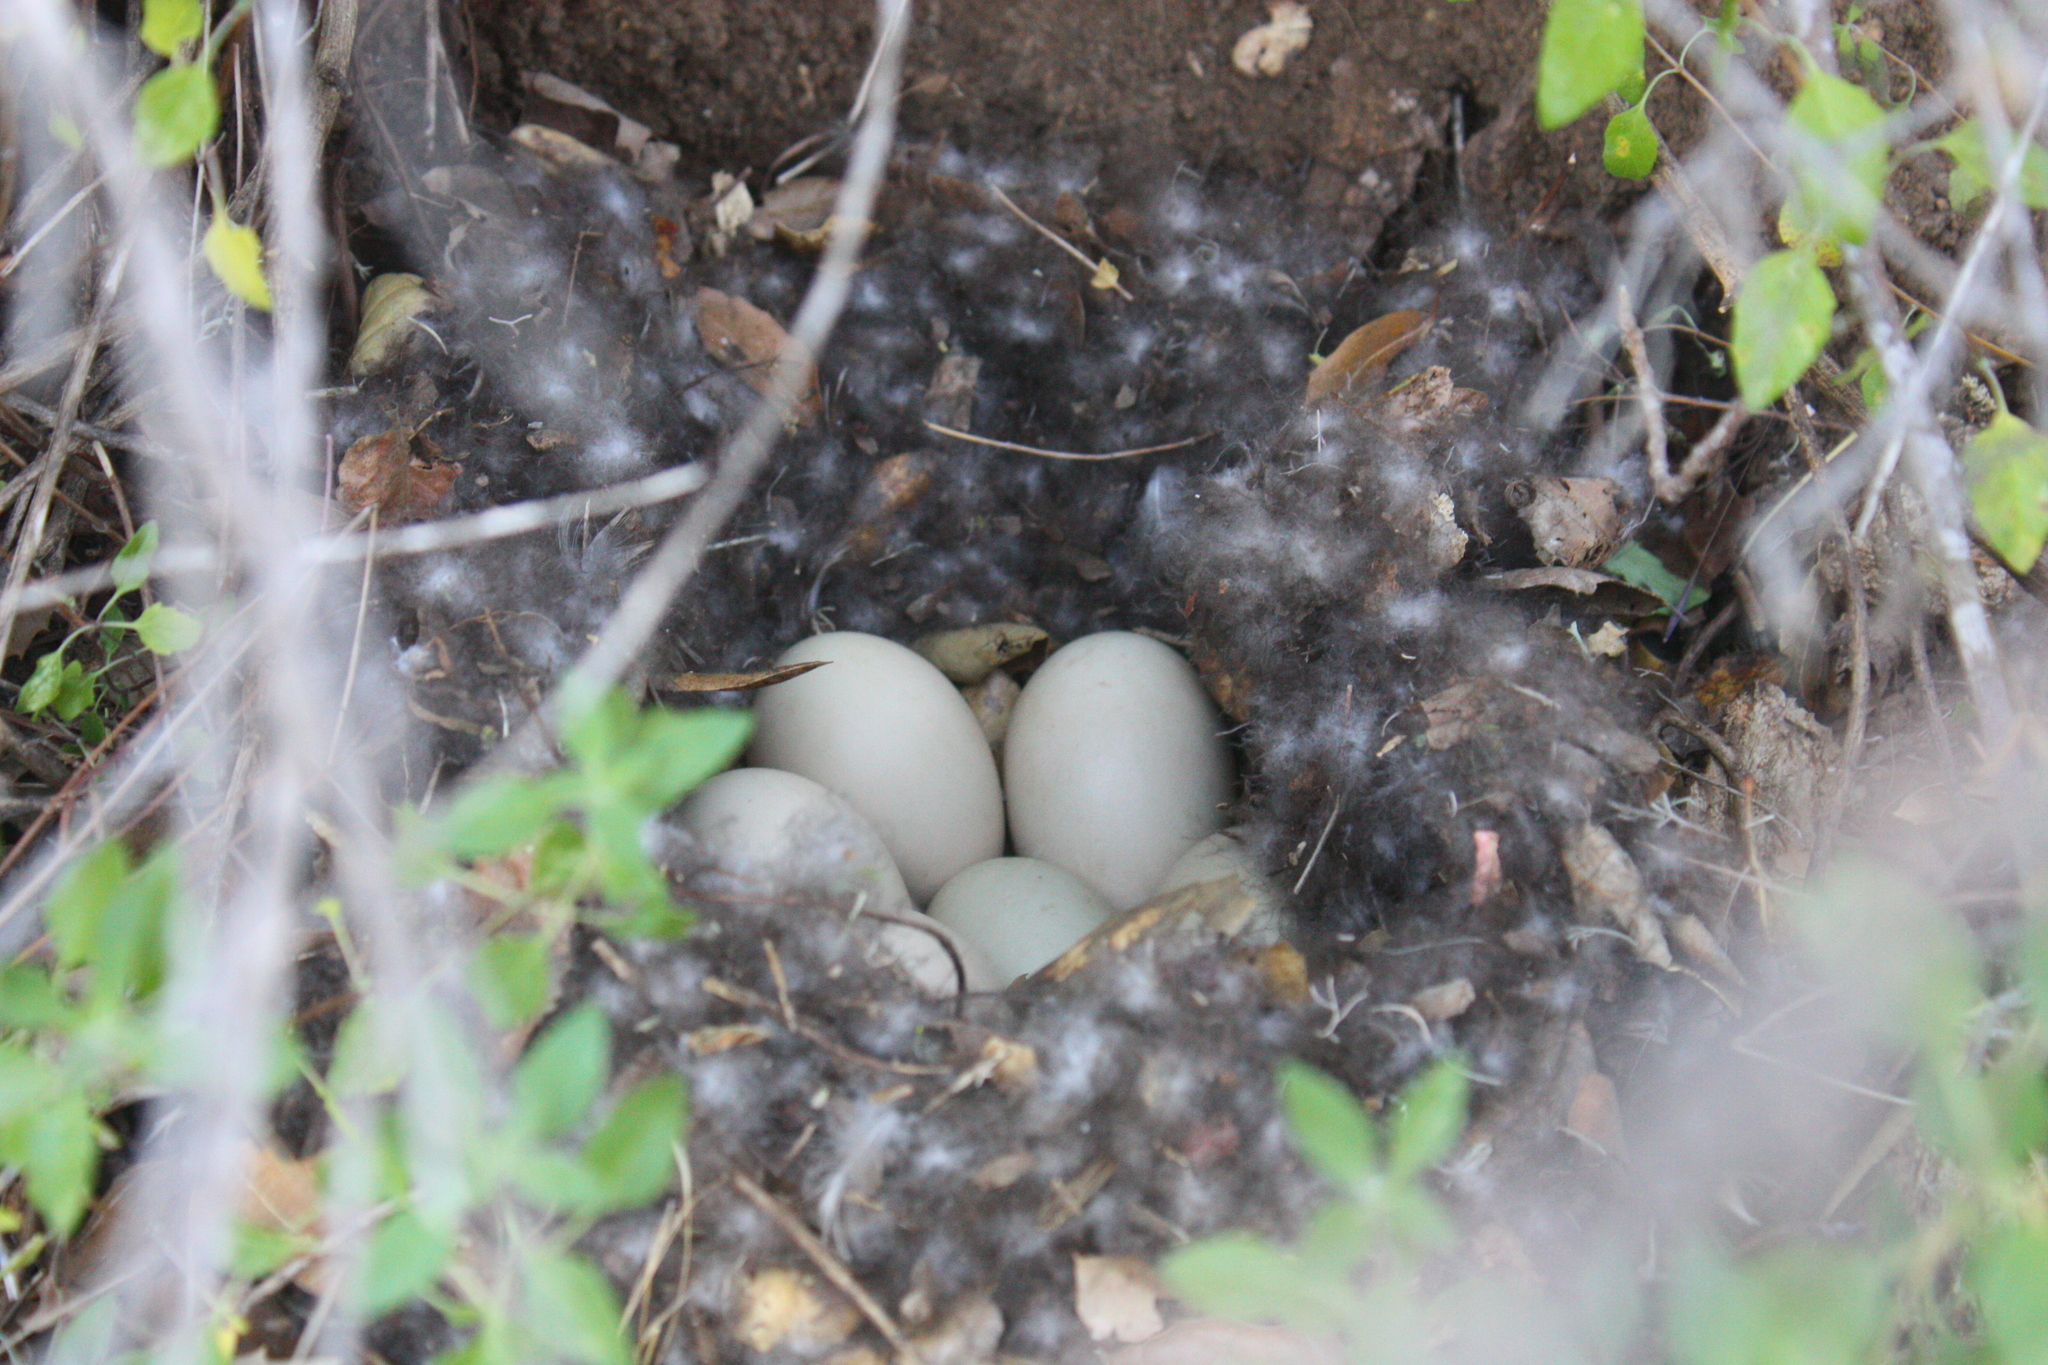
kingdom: Animalia
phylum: Chordata
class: Aves
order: Anseriformes
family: Anatidae
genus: Anas
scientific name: Anas platyrhynchos
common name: Mallard
